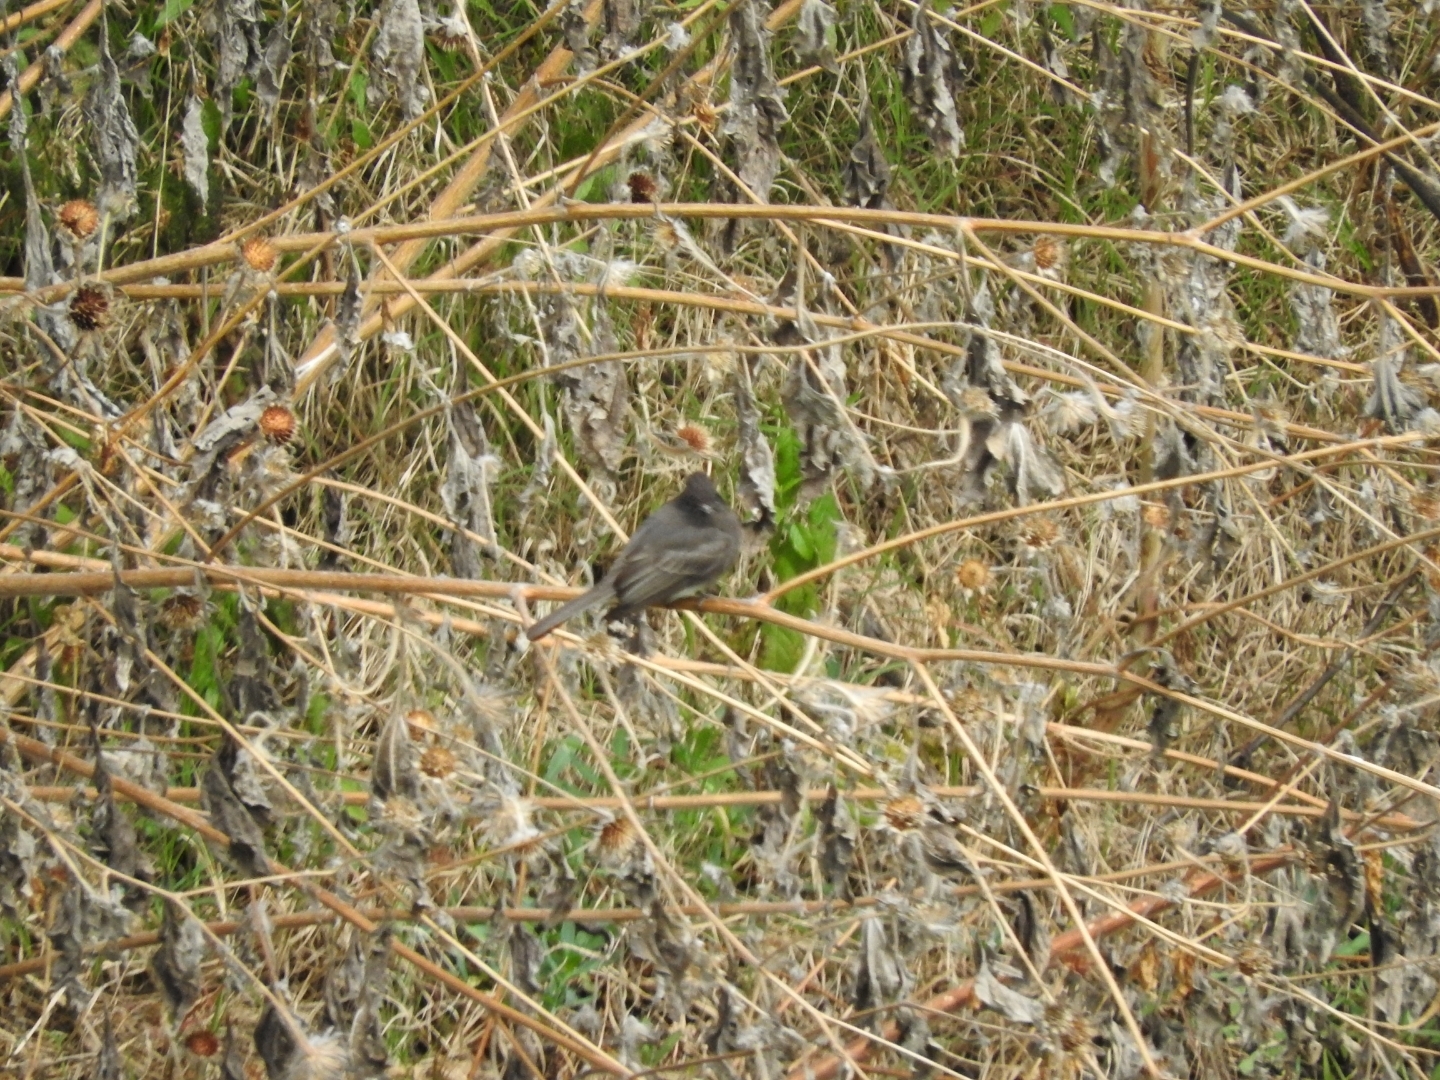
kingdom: Animalia
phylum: Chordata
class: Aves
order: Passeriformes
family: Tyrannidae
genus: Sayornis
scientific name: Sayornis nigricans
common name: Black phoebe
